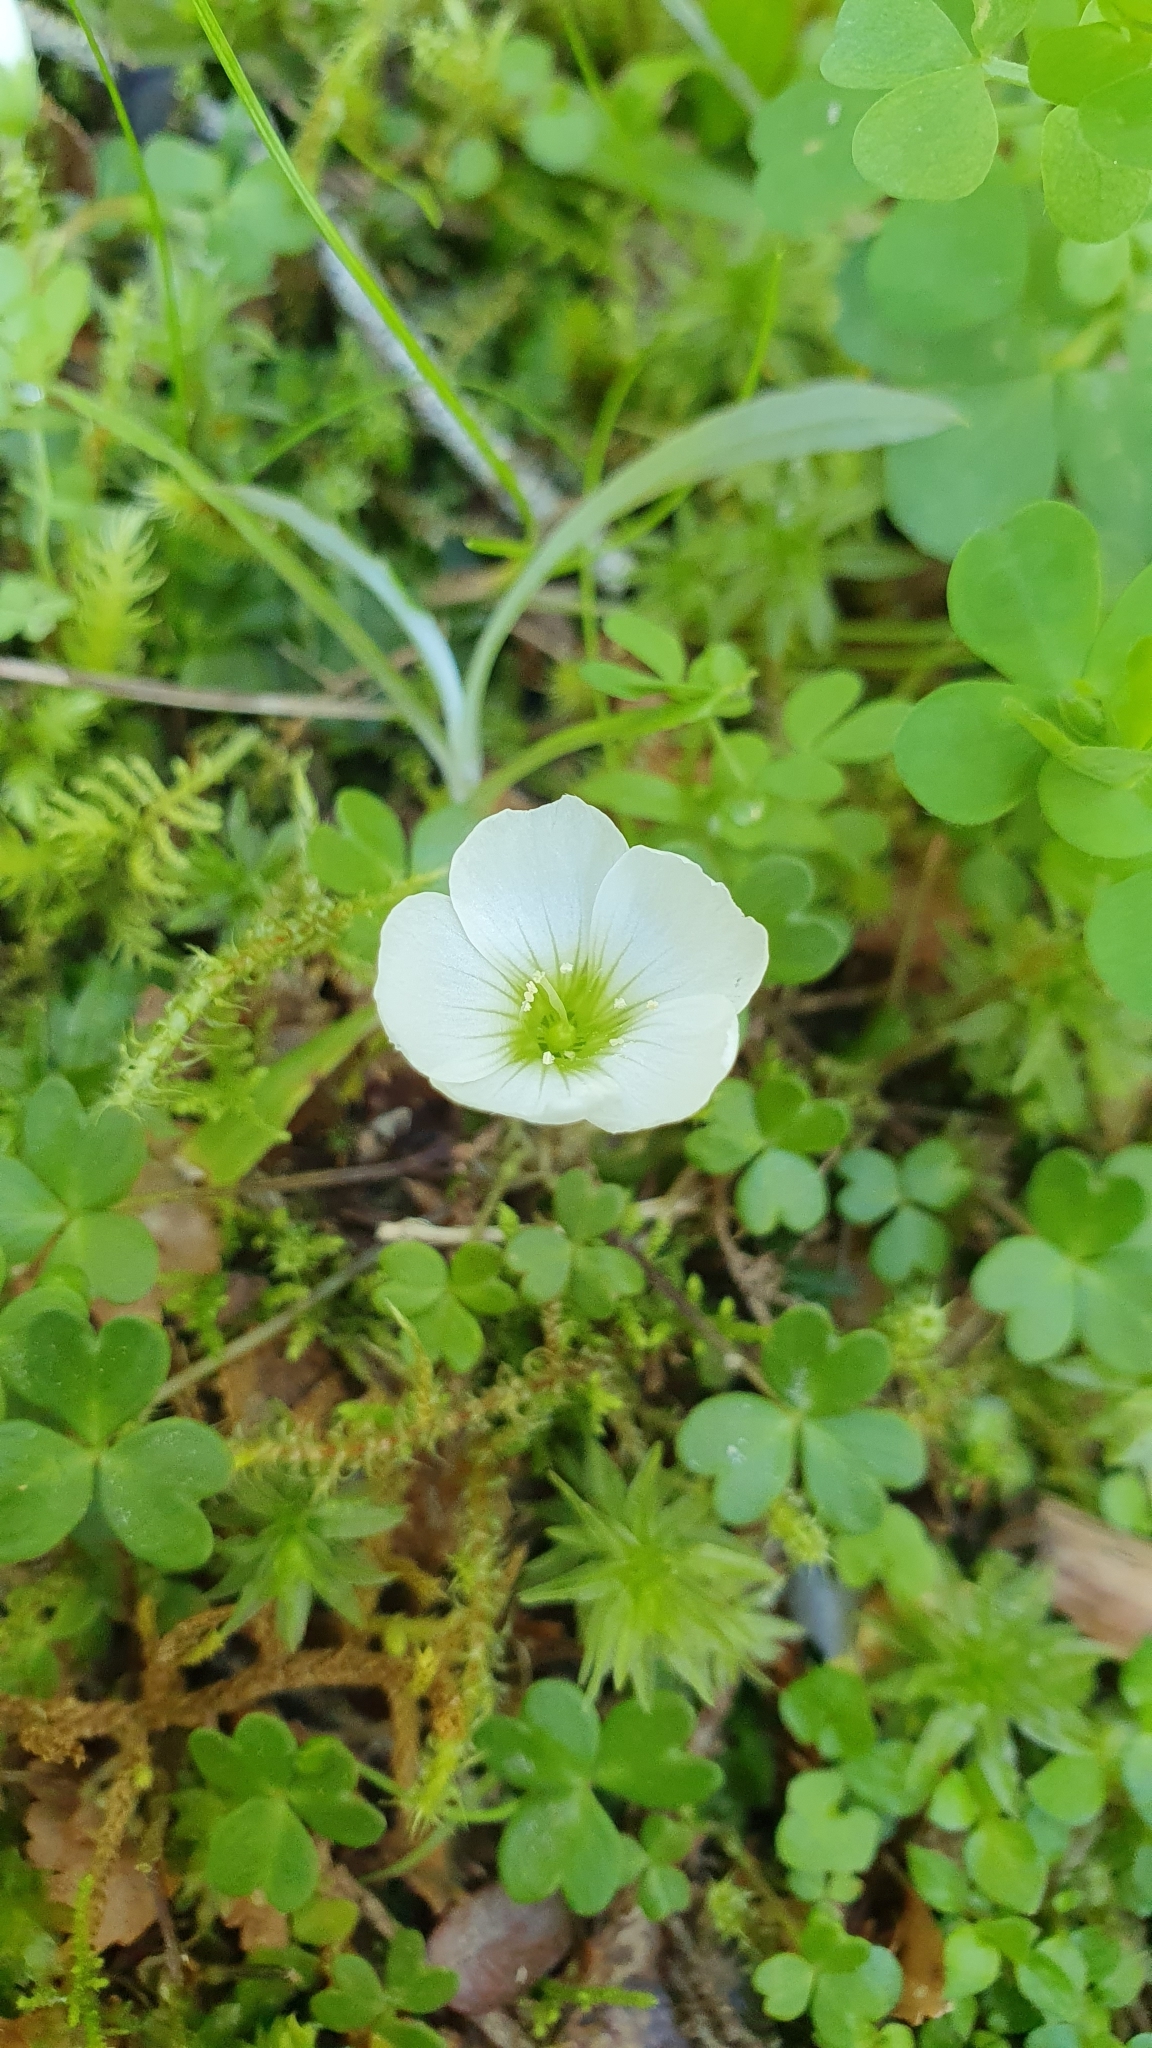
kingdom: Plantae
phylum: Tracheophyta
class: Magnoliopsida
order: Oxalidales
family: Oxalidaceae
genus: Oxalis
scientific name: Oxalis magellanica
